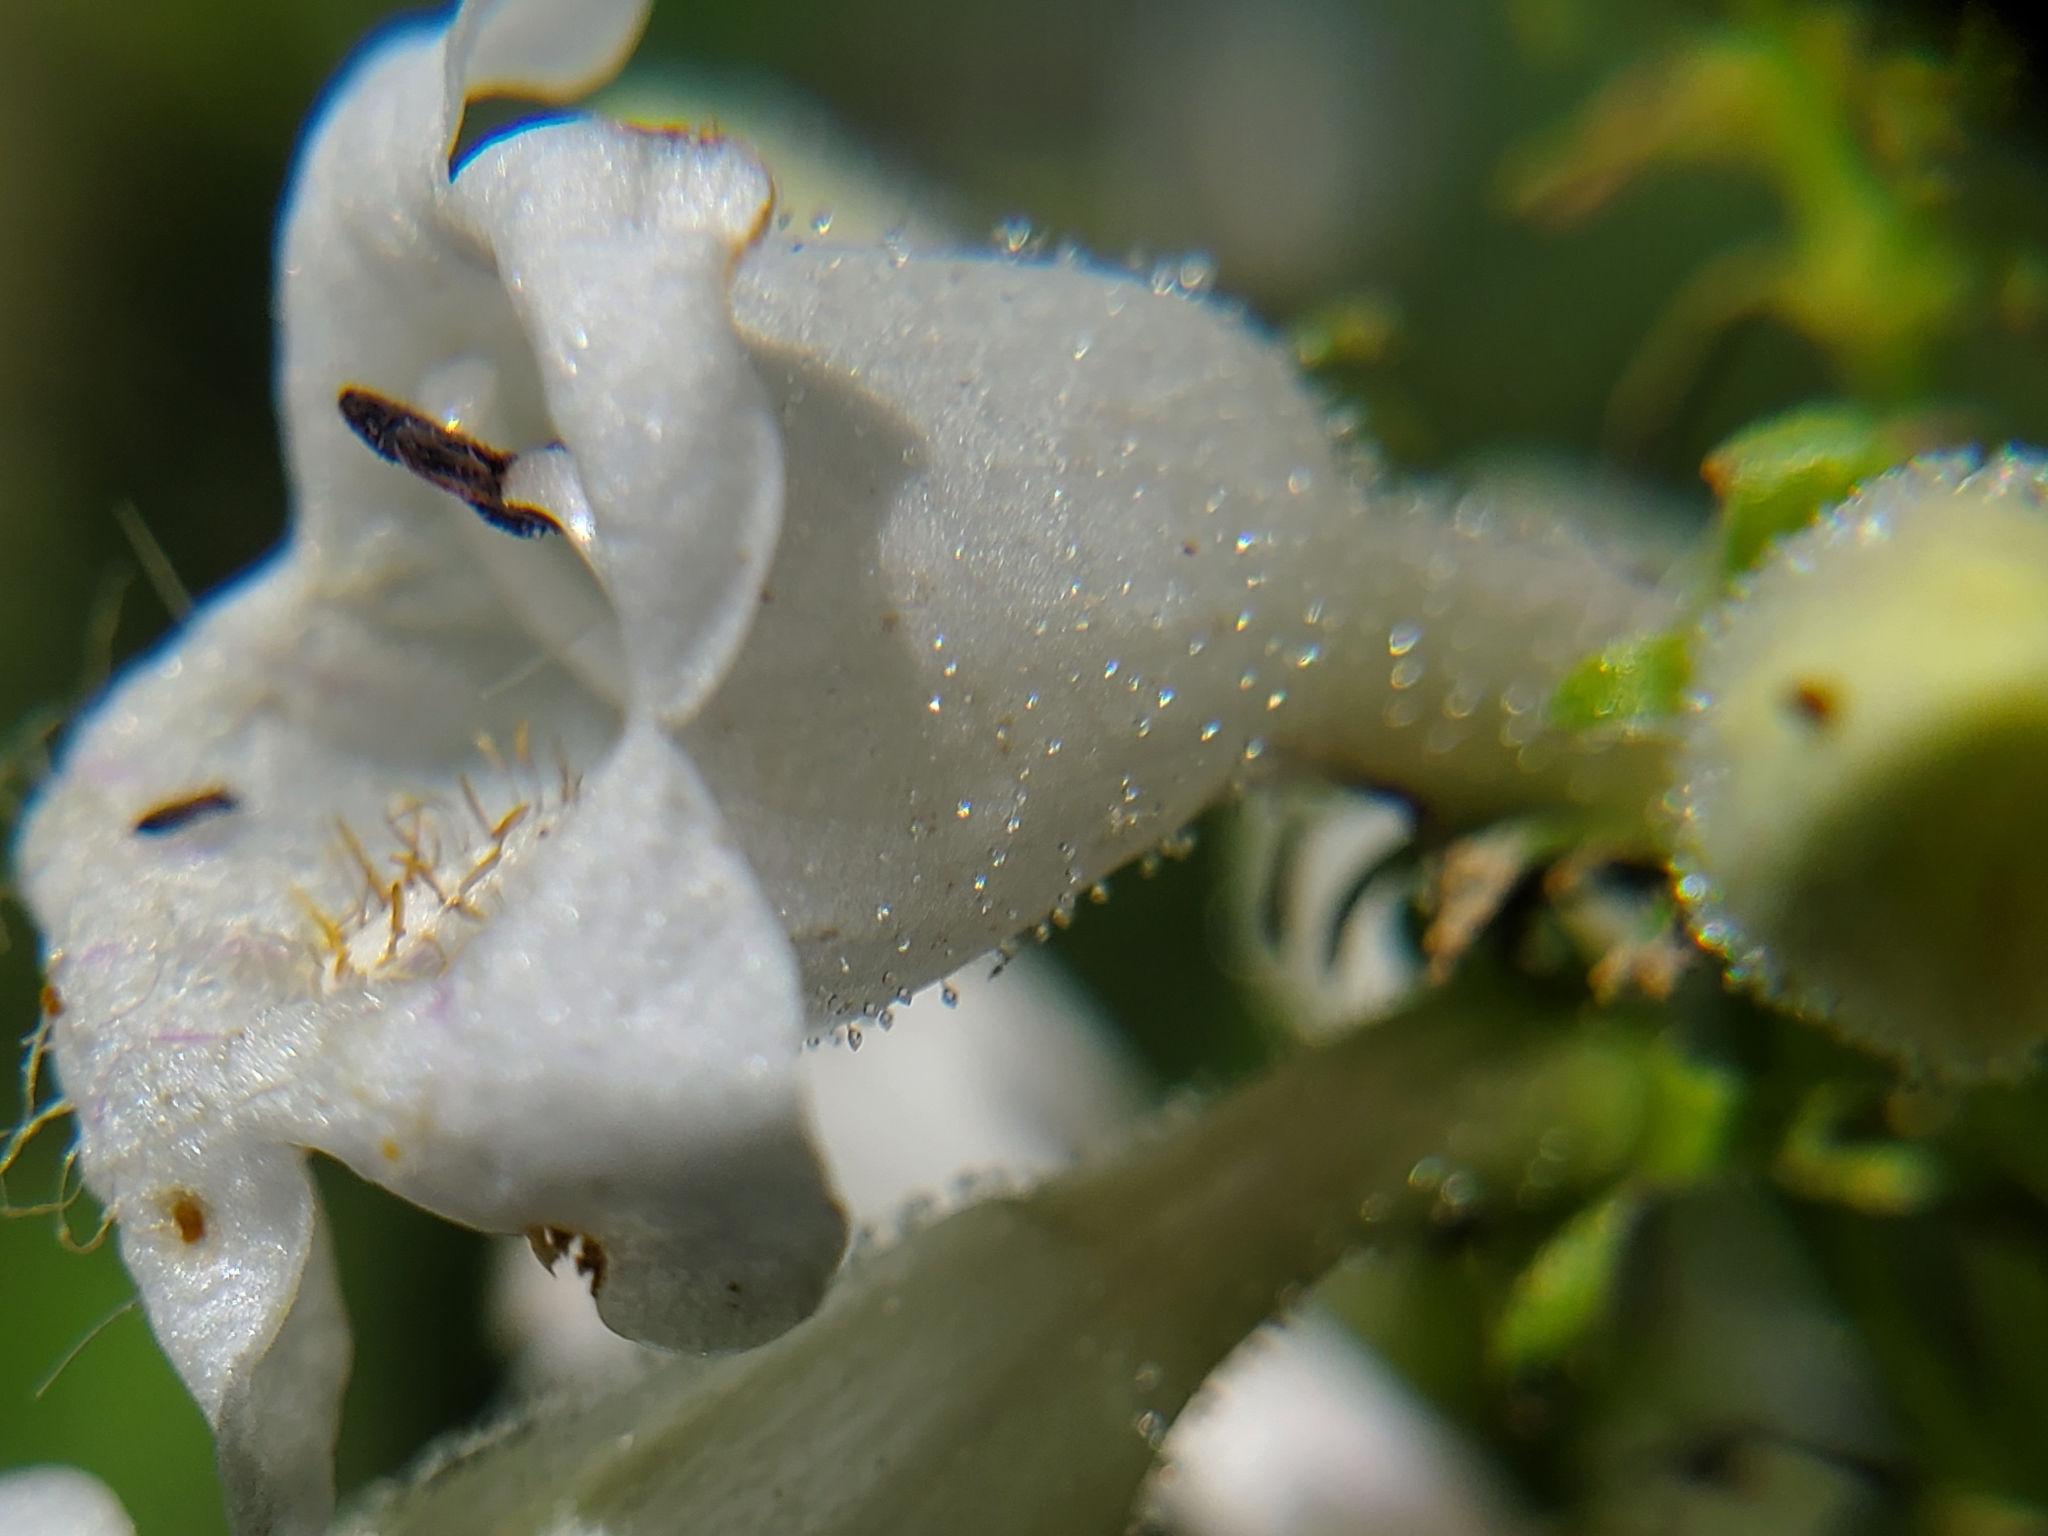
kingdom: Plantae
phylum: Tracheophyta
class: Magnoliopsida
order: Lamiales
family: Plantaginaceae
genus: Penstemon
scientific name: Penstemon digitalis
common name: Foxglove beardtongue
